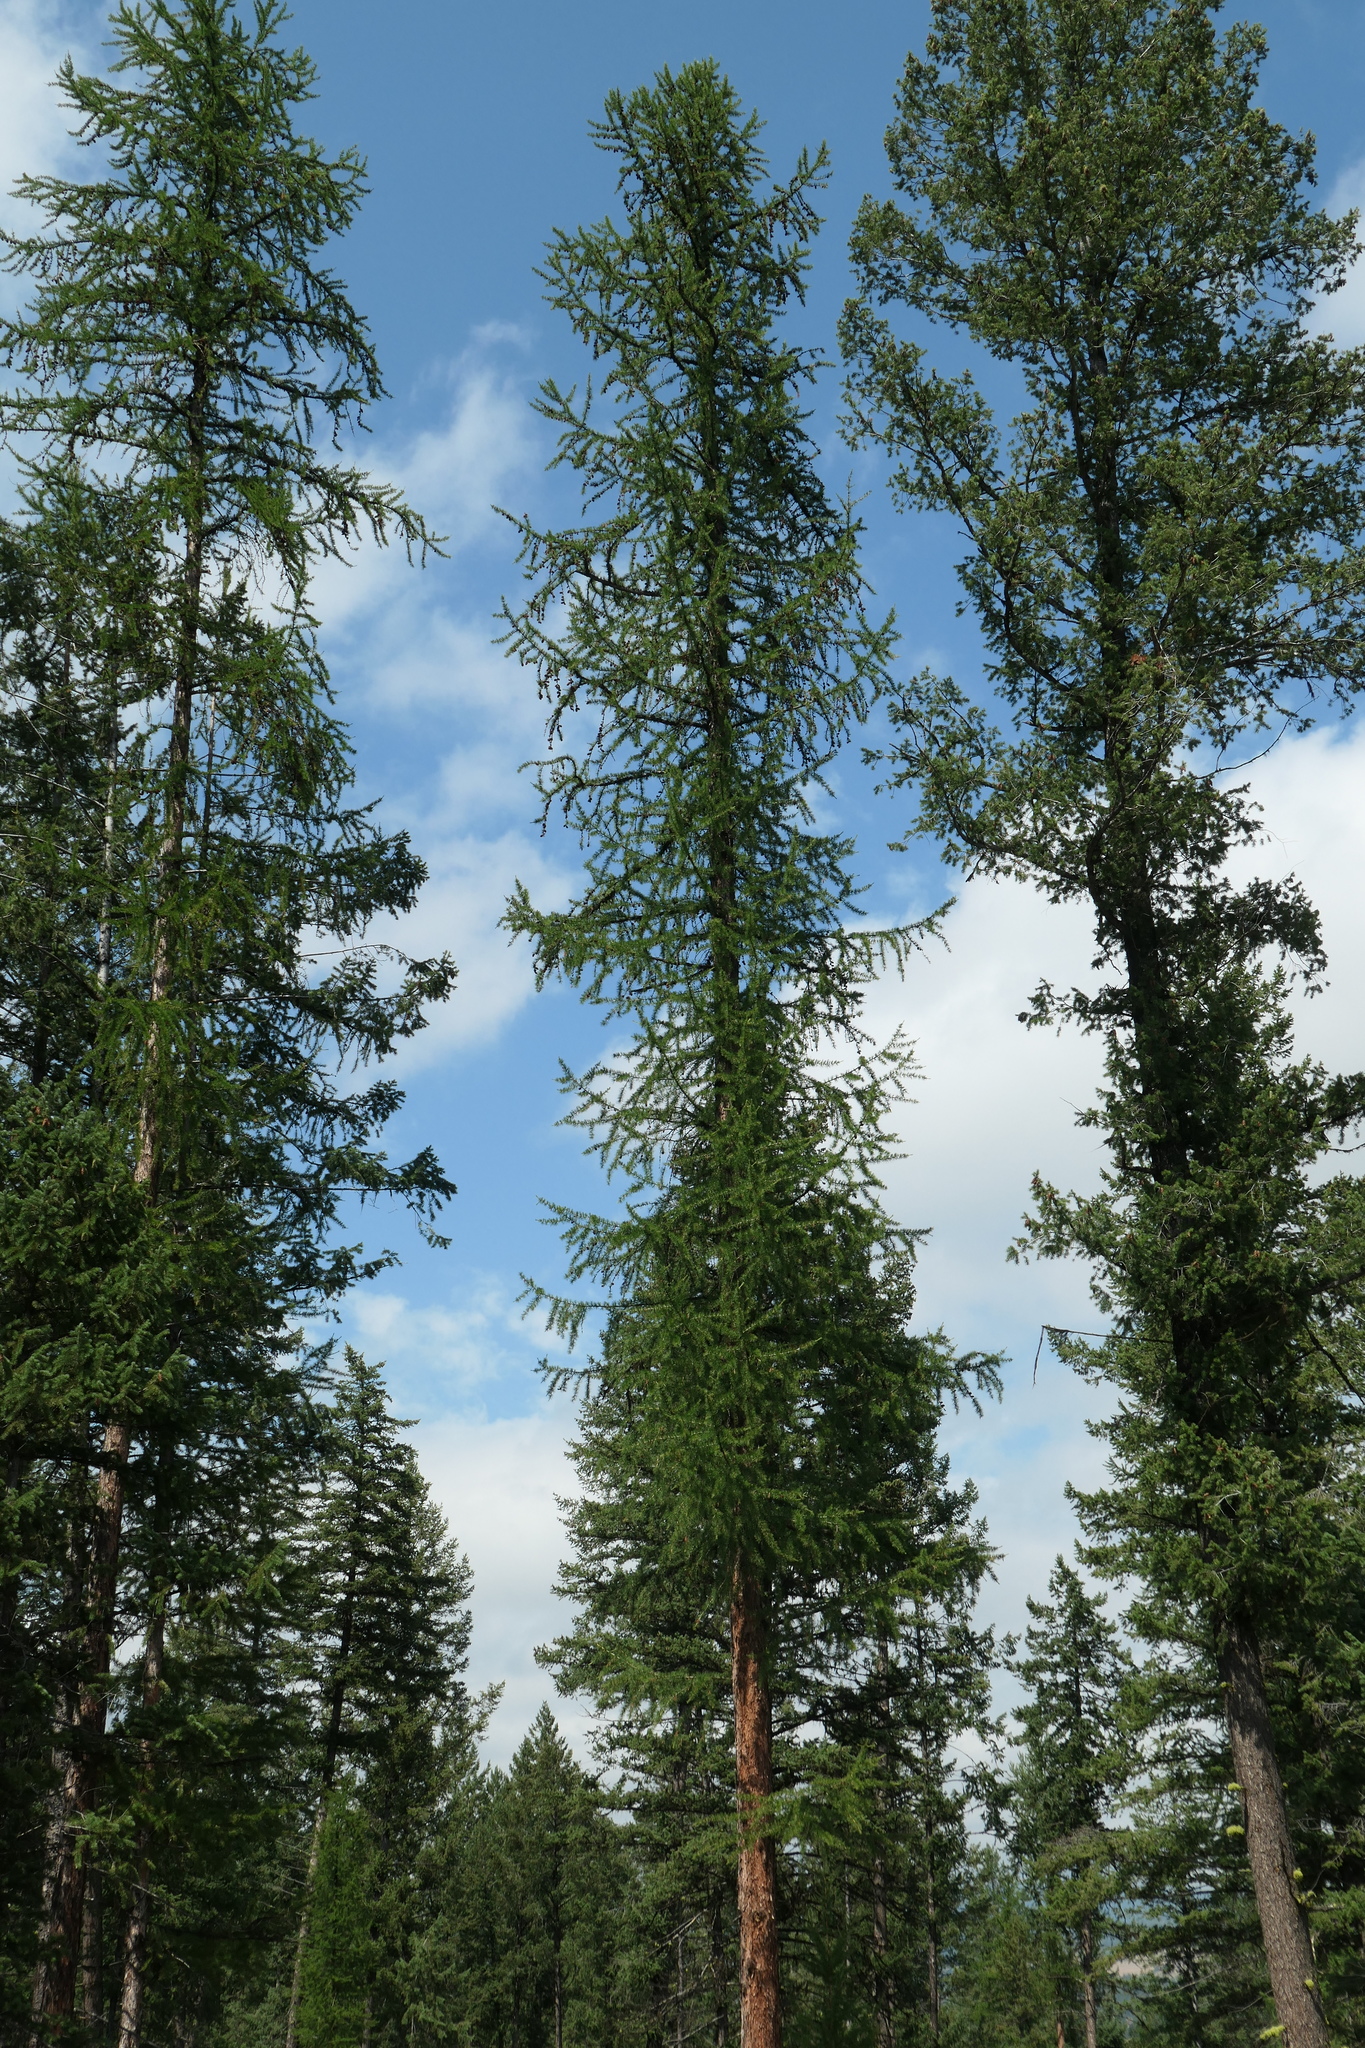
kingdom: Plantae
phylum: Tracheophyta
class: Pinopsida
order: Pinales
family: Pinaceae
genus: Larix
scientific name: Larix occidentalis
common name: Western larch
